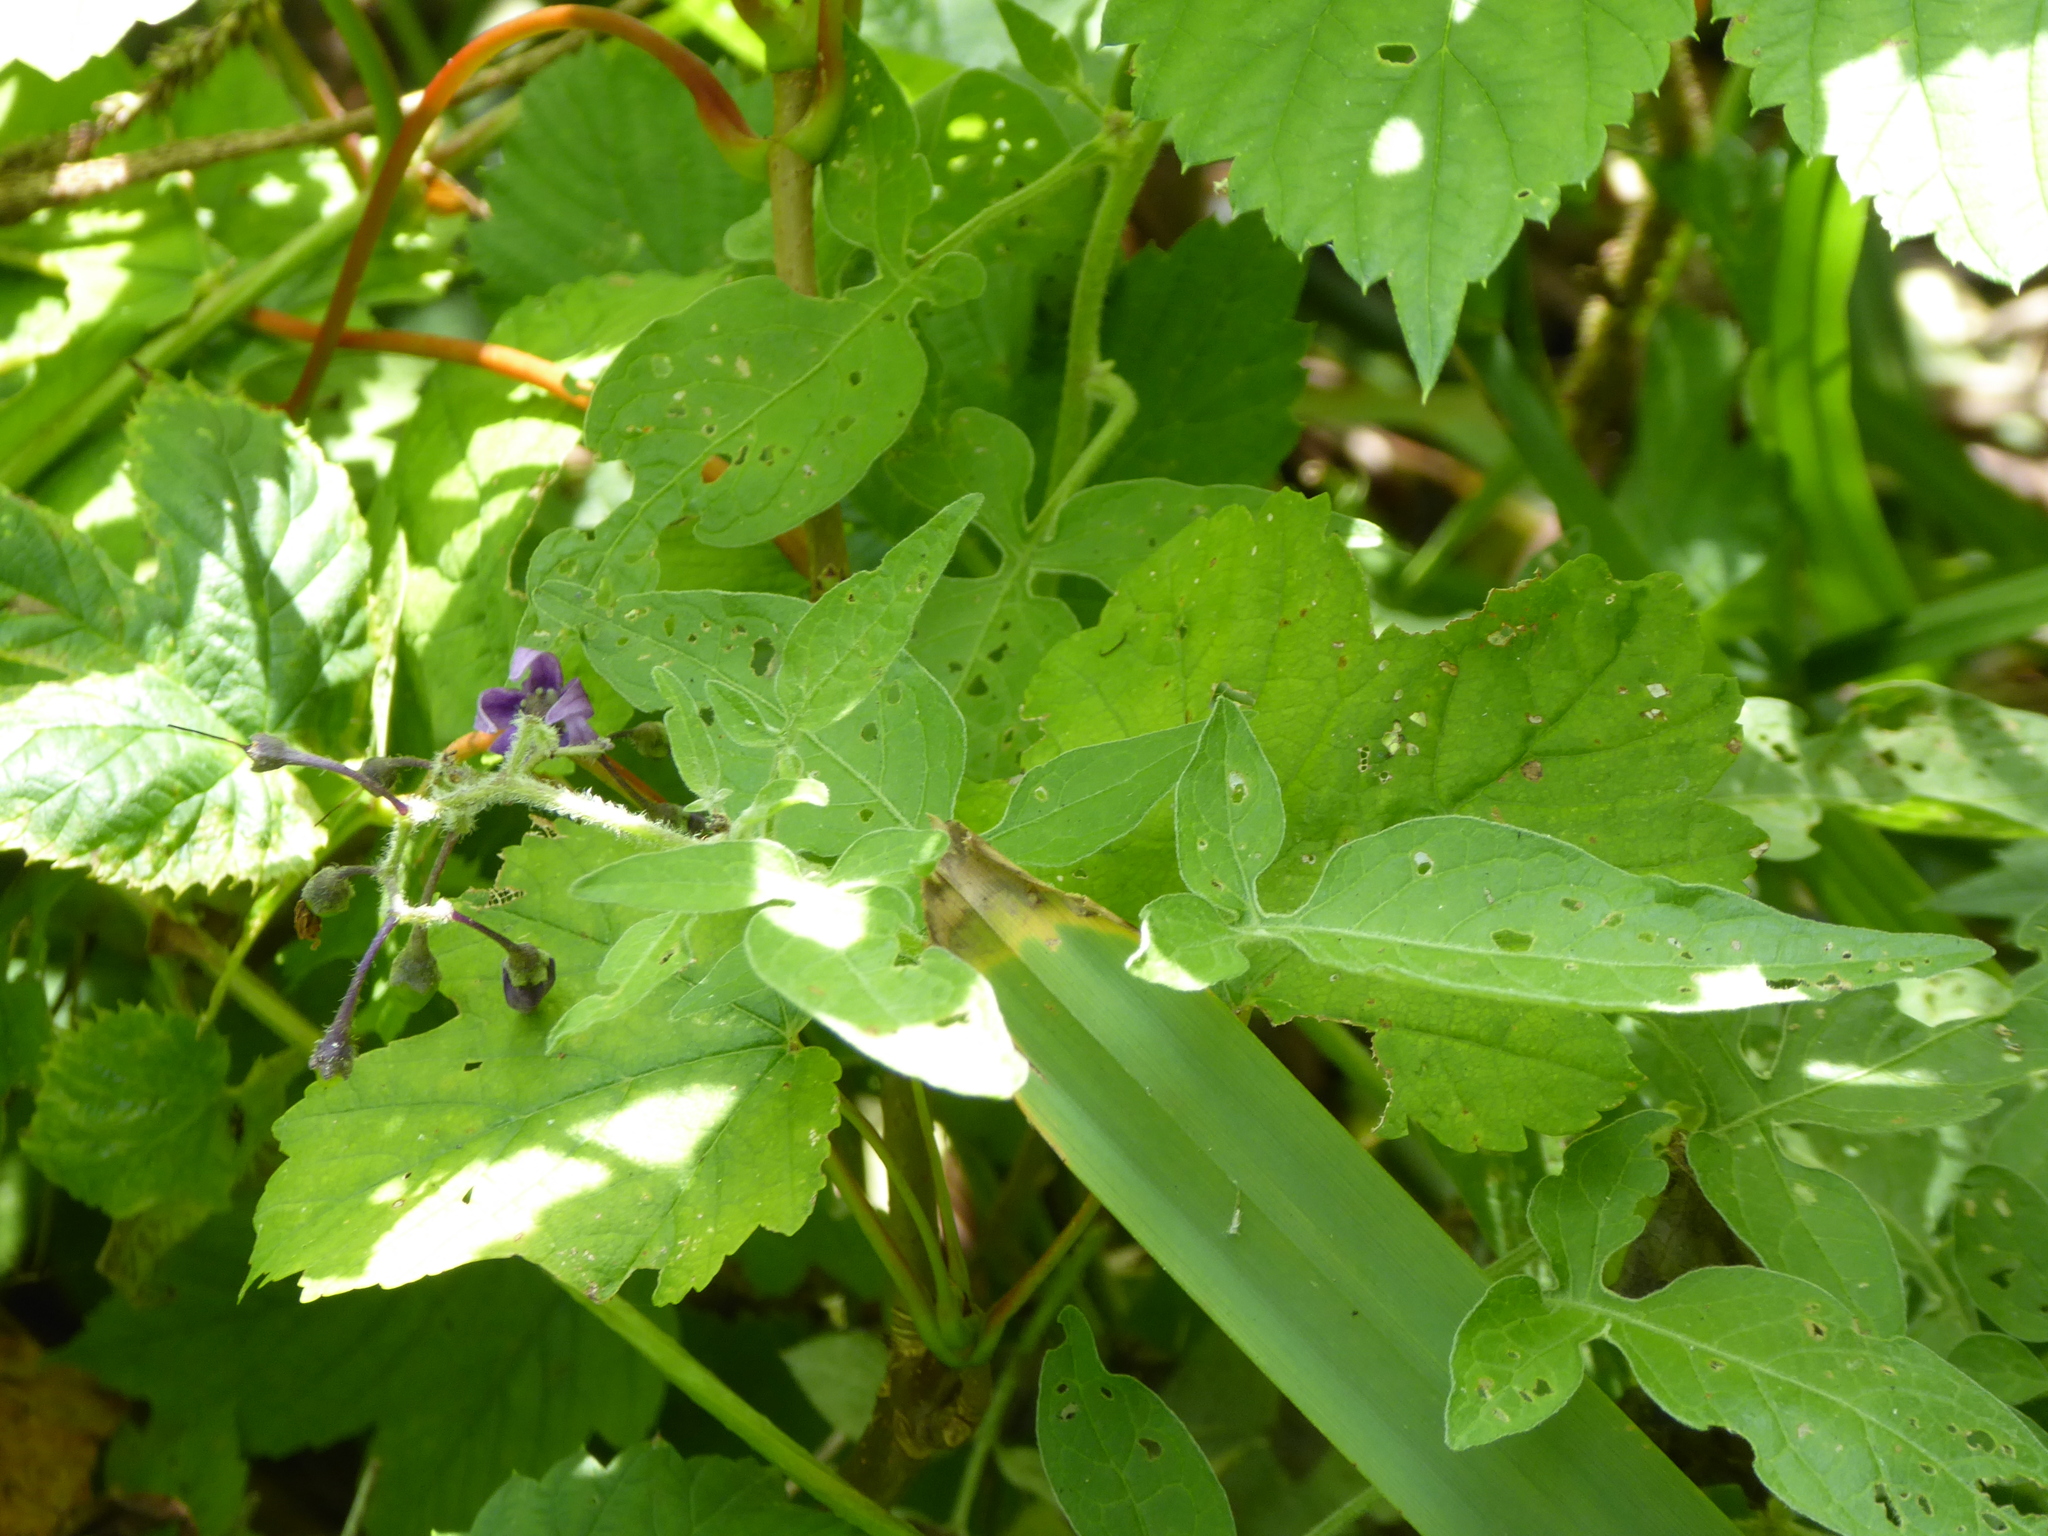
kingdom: Plantae
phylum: Tracheophyta
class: Magnoliopsida
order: Solanales
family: Solanaceae
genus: Solanum
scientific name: Solanum dulcamara
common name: Climbing nightshade
